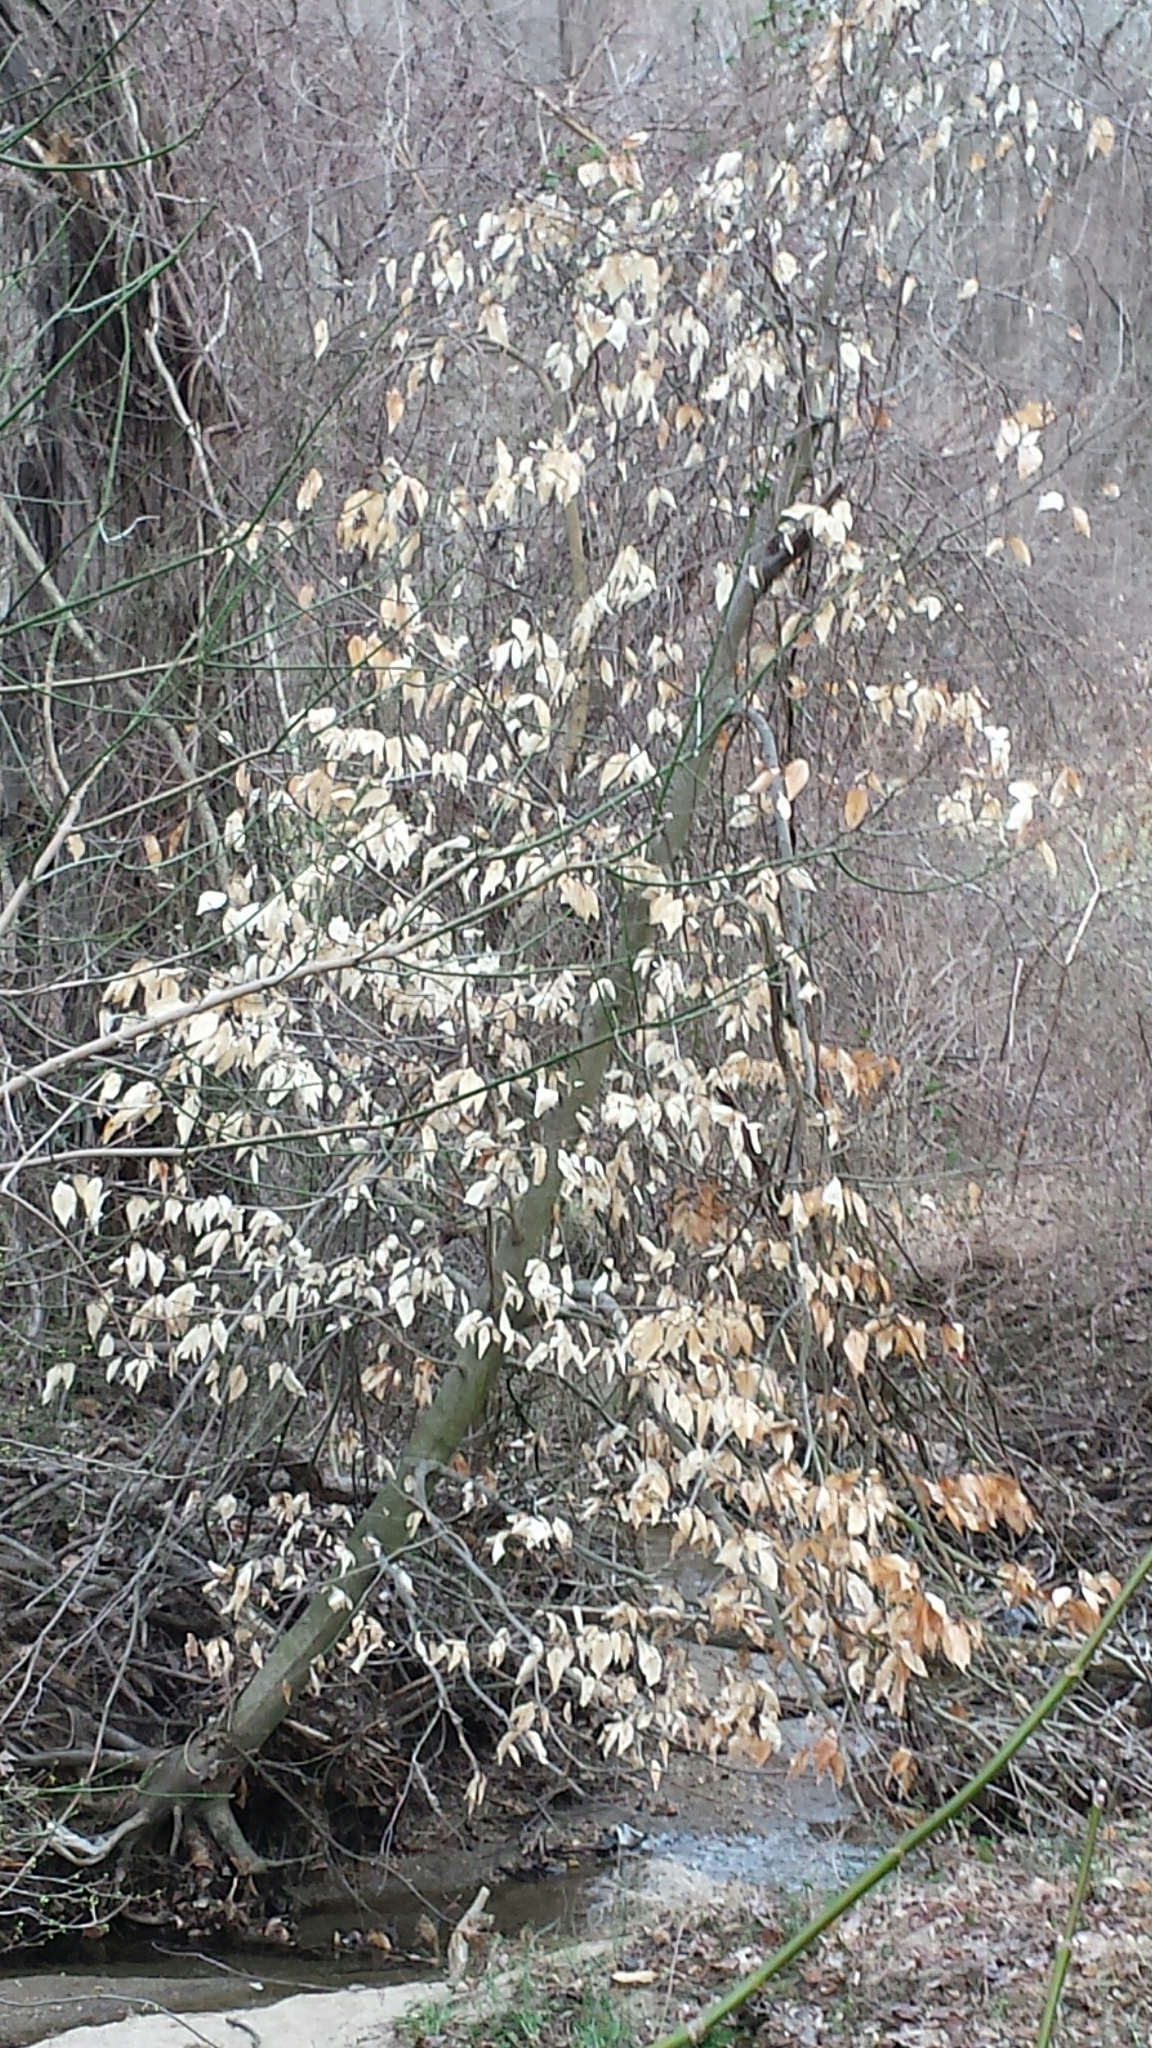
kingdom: Plantae
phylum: Tracheophyta
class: Magnoliopsida
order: Fagales
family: Fagaceae
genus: Fagus
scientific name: Fagus grandifolia
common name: American beech
